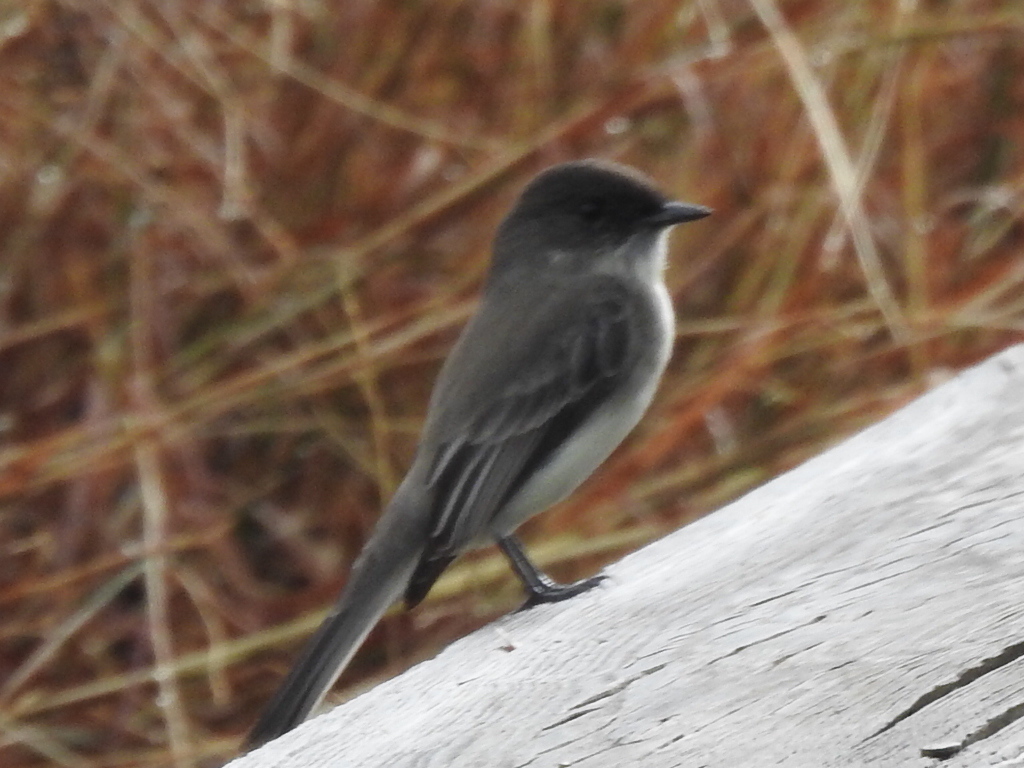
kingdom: Animalia
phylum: Chordata
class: Aves
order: Passeriformes
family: Tyrannidae
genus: Sayornis
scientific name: Sayornis phoebe
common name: Eastern phoebe
